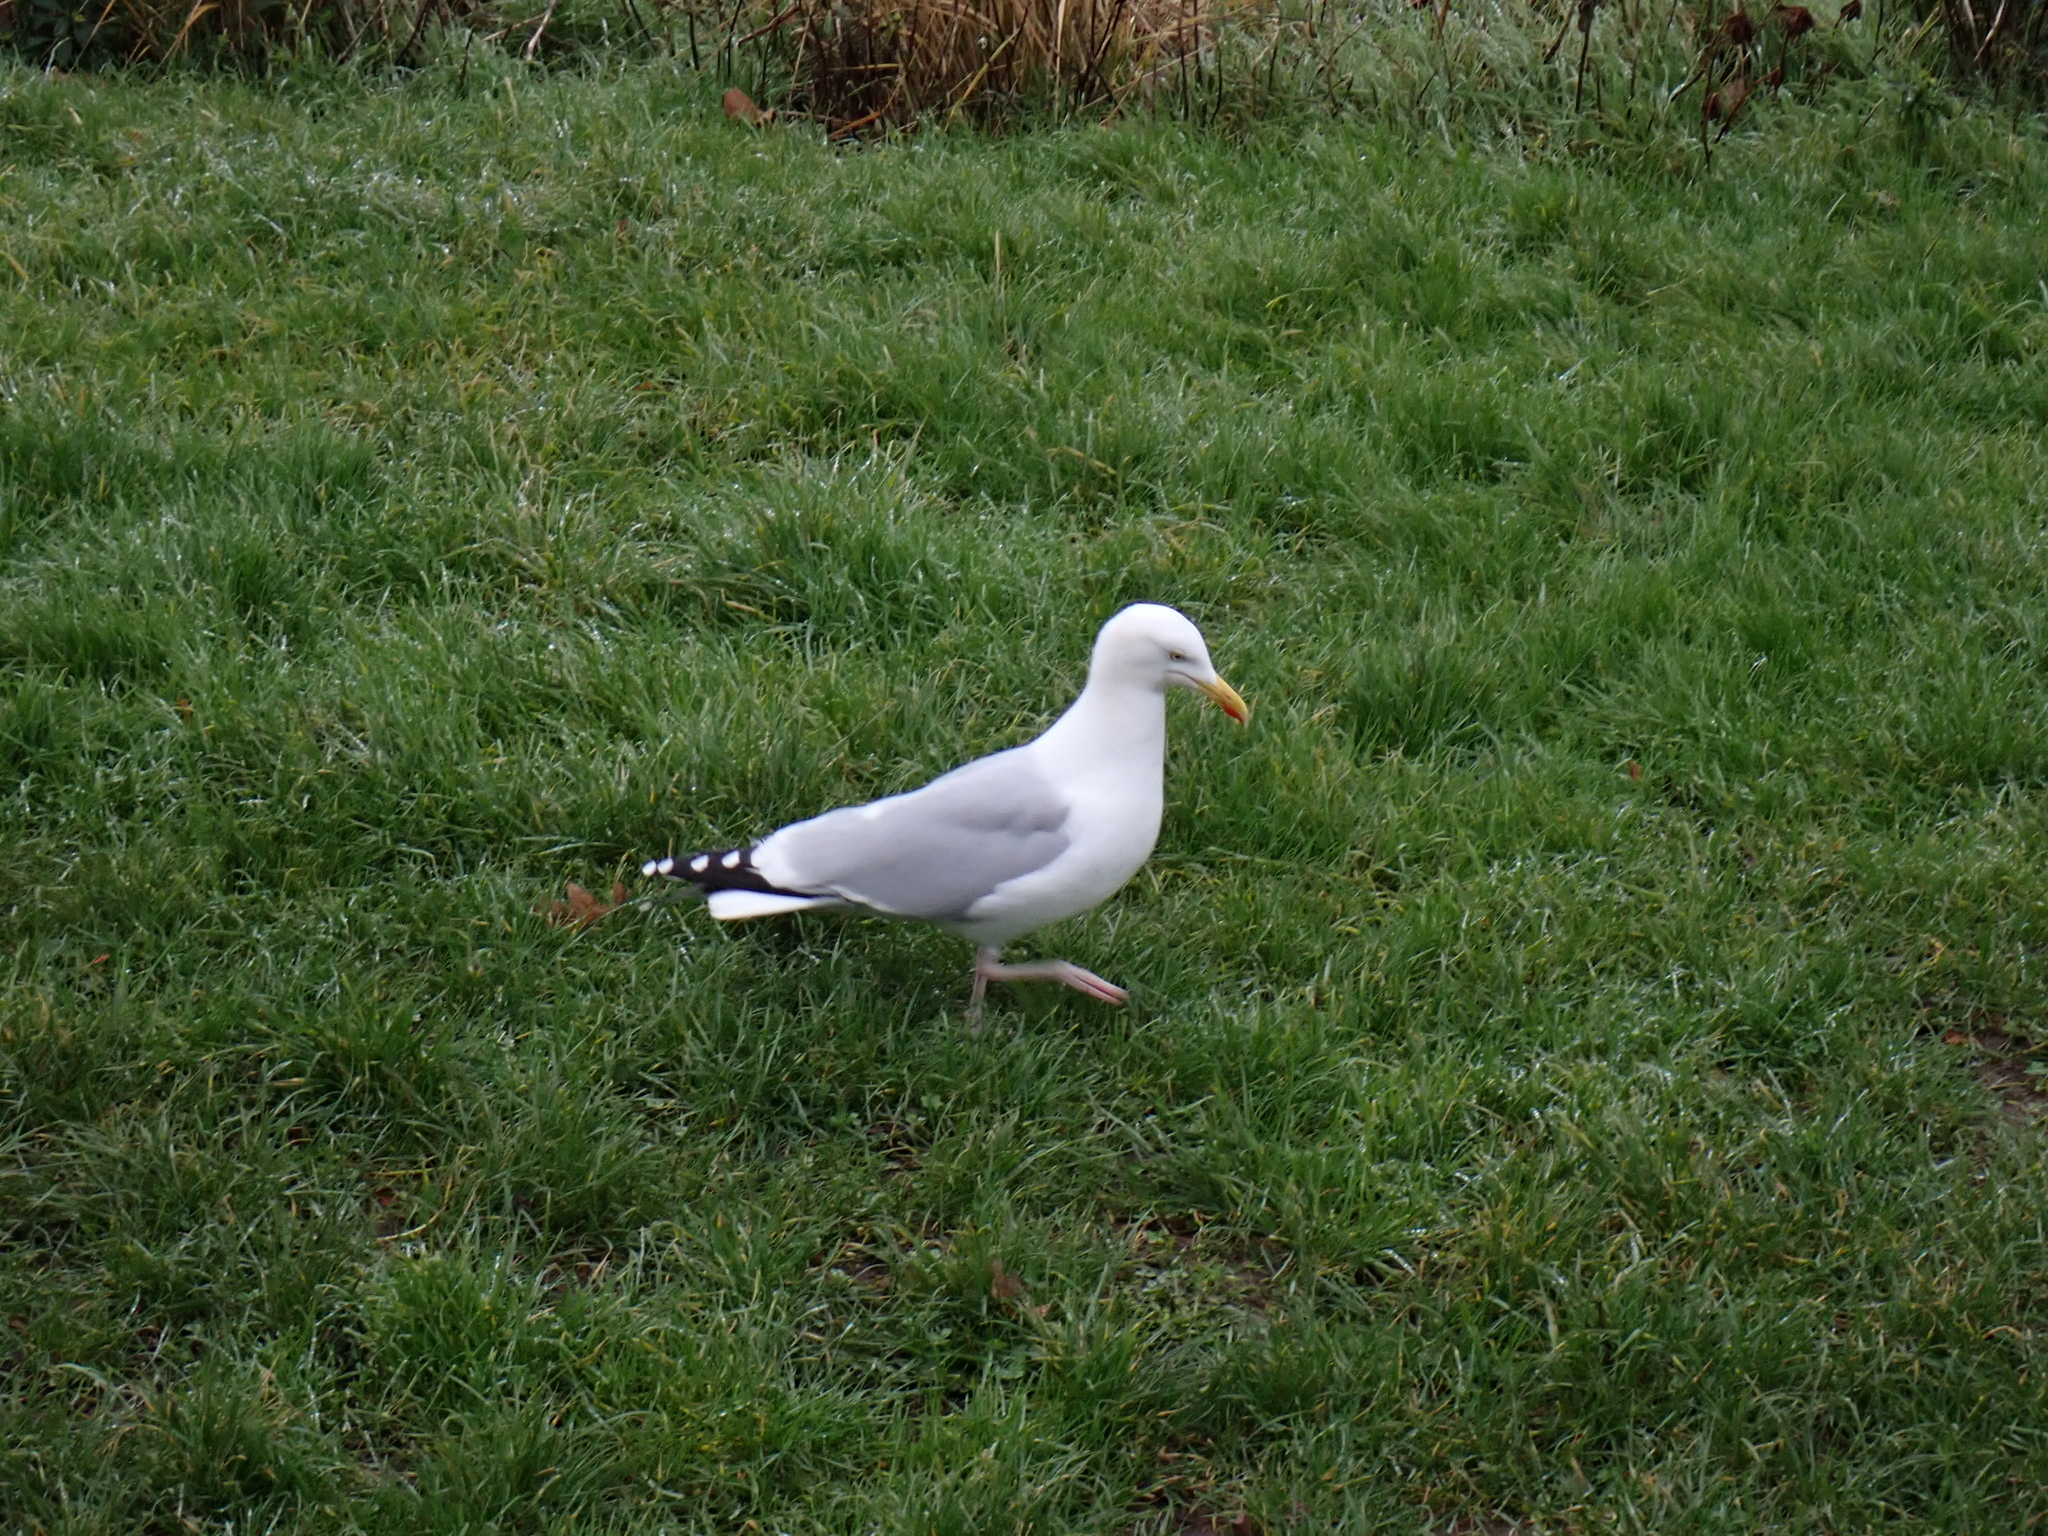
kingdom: Animalia
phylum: Chordata
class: Aves
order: Charadriiformes
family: Laridae
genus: Larus
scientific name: Larus argentatus
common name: Herring gull
